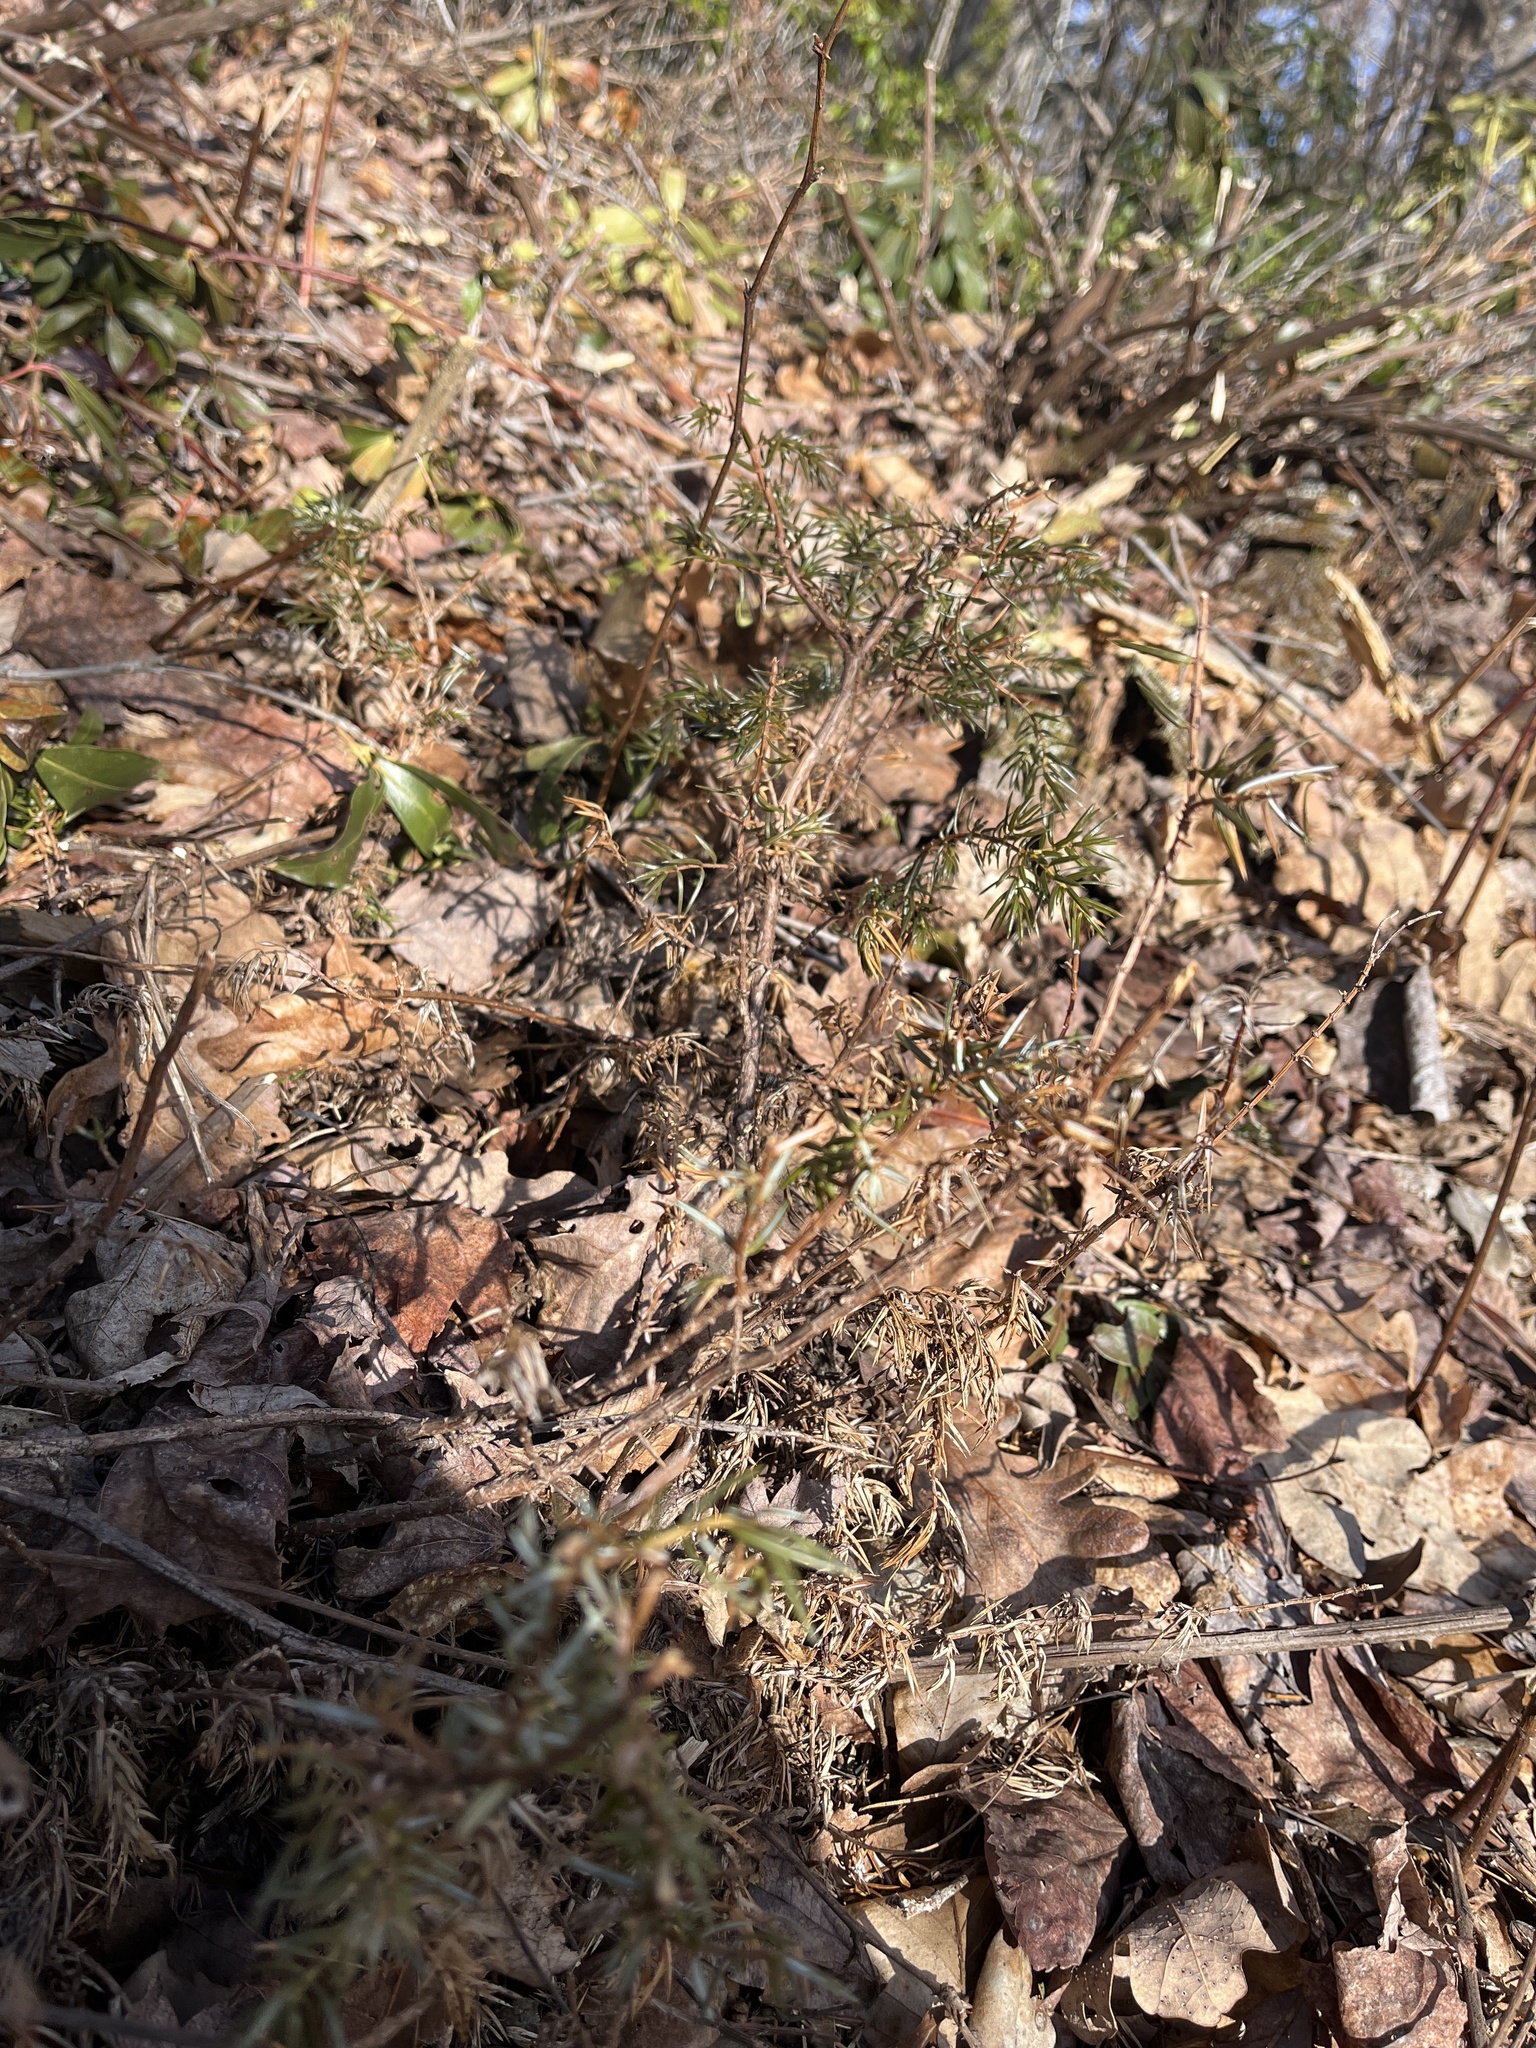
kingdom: Plantae
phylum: Tracheophyta
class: Pinopsida
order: Pinales
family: Cupressaceae
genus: Juniperus
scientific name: Juniperus communis
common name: Common juniper
